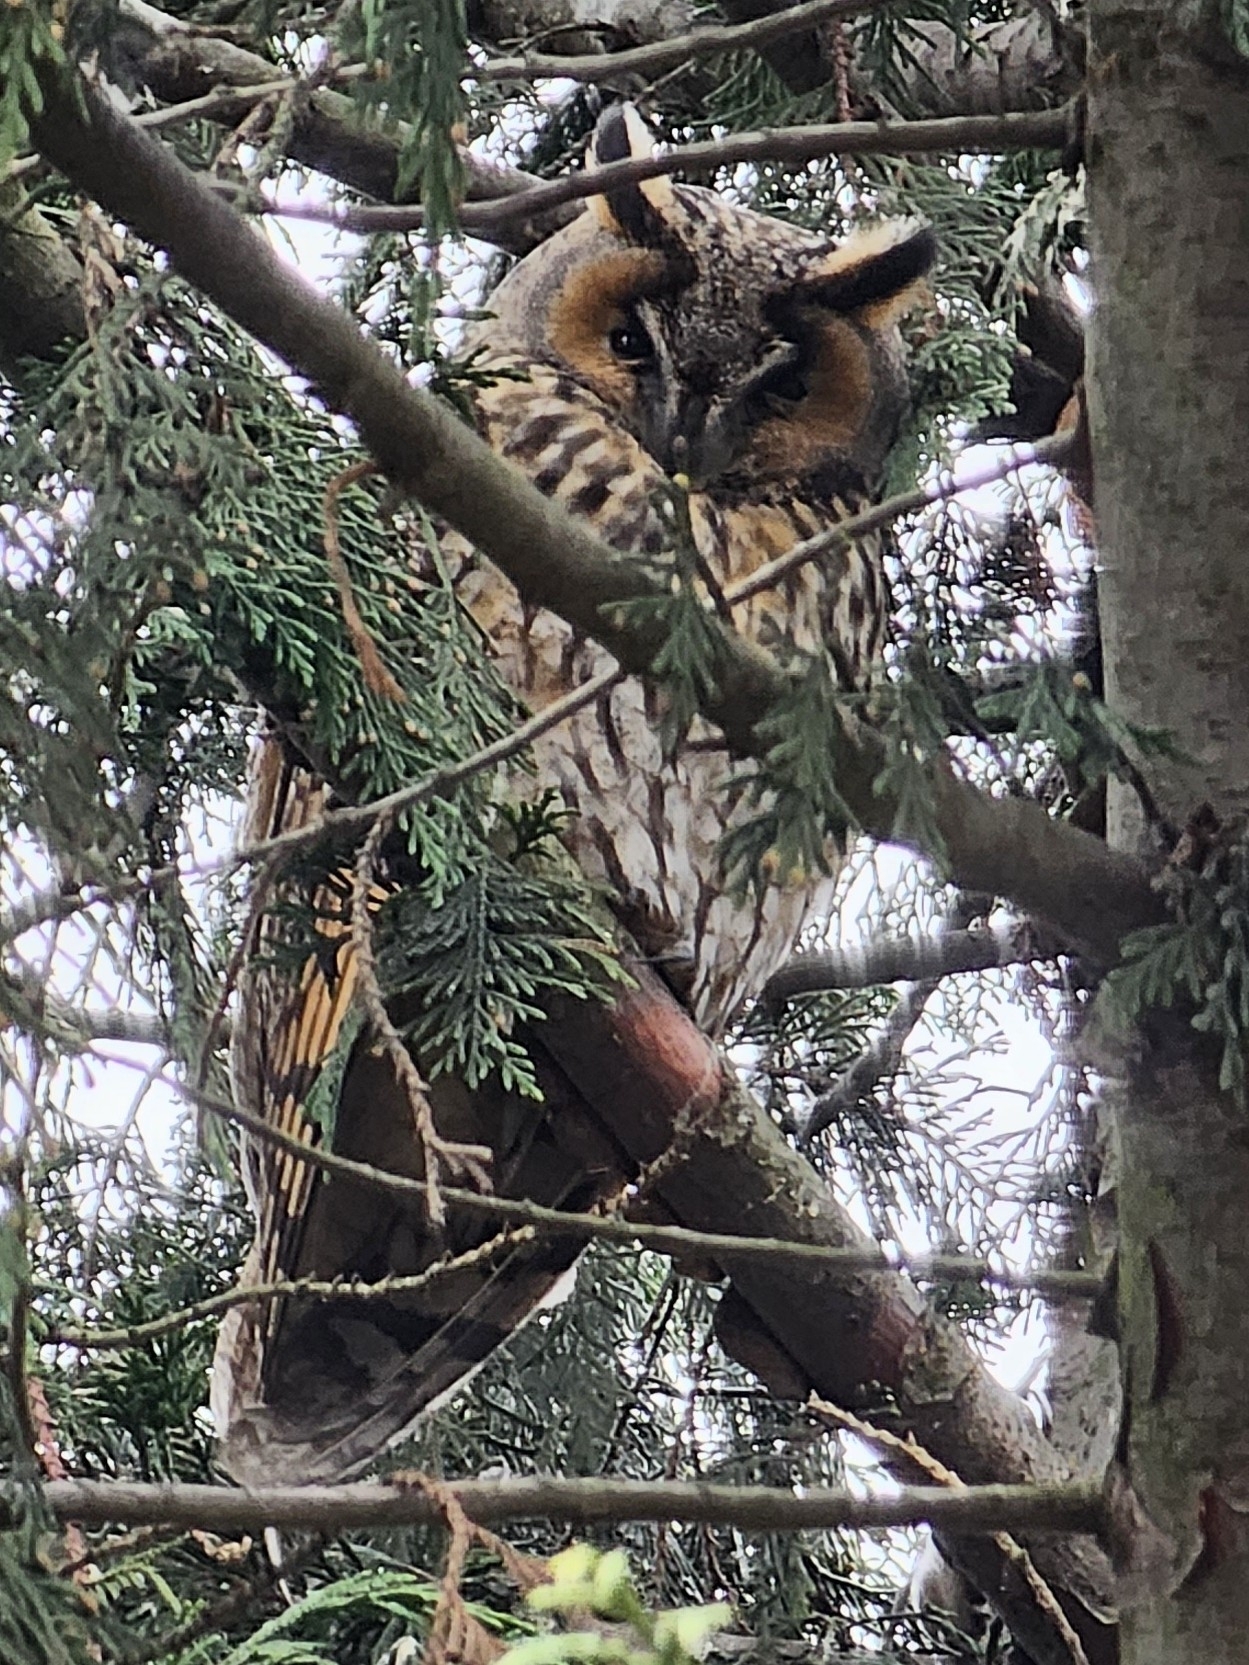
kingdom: Animalia
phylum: Chordata
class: Aves
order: Strigiformes
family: Strigidae
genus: Asio
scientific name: Asio otus
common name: Long-eared owl
